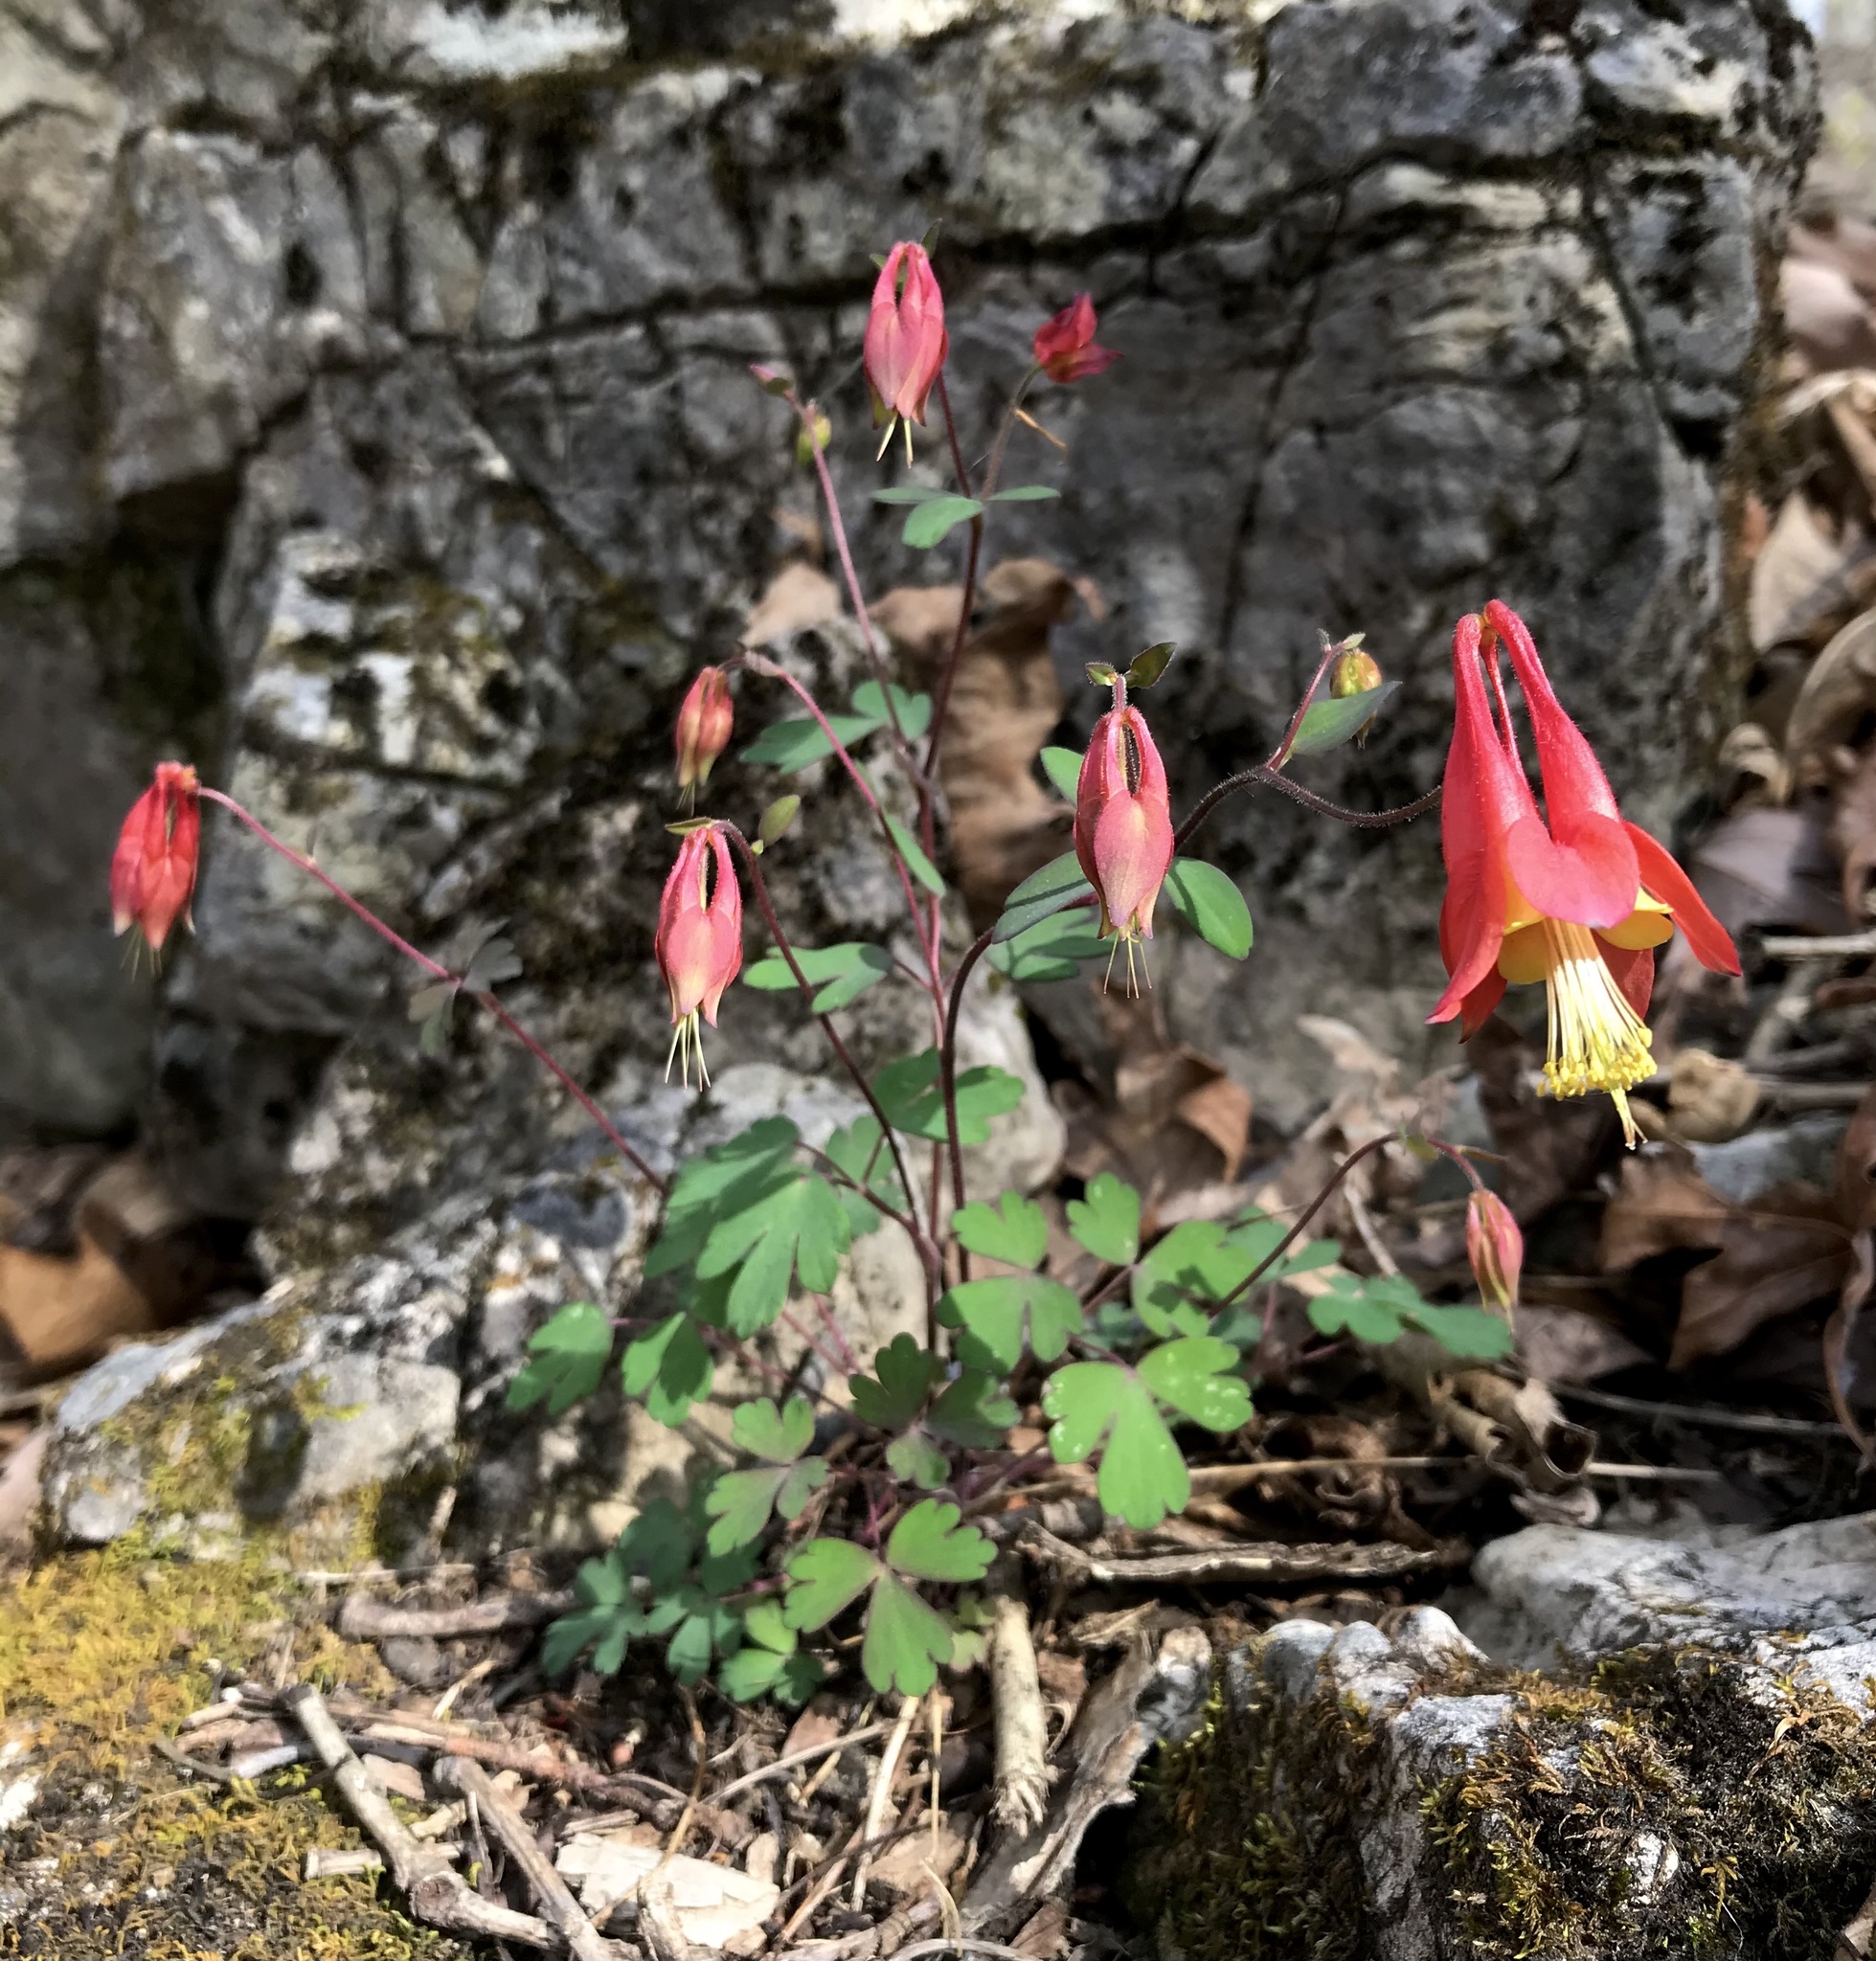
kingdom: Plantae
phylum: Tracheophyta
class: Magnoliopsida
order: Ranunculales
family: Ranunculaceae
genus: Aquilegia
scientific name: Aquilegia canadensis
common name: American columbine
